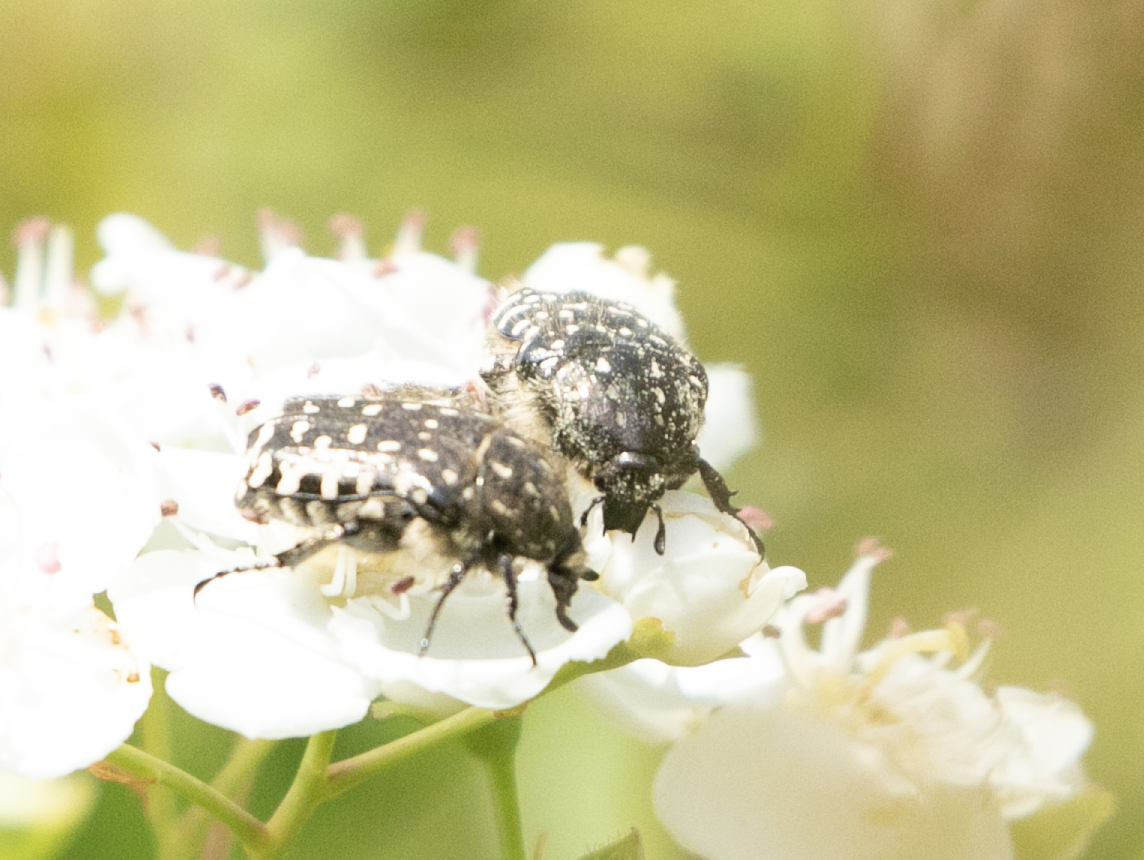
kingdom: Animalia
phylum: Arthropoda
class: Insecta
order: Coleoptera
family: Scarabaeidae
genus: Oxythyrea
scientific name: Oxythyrea funesta
